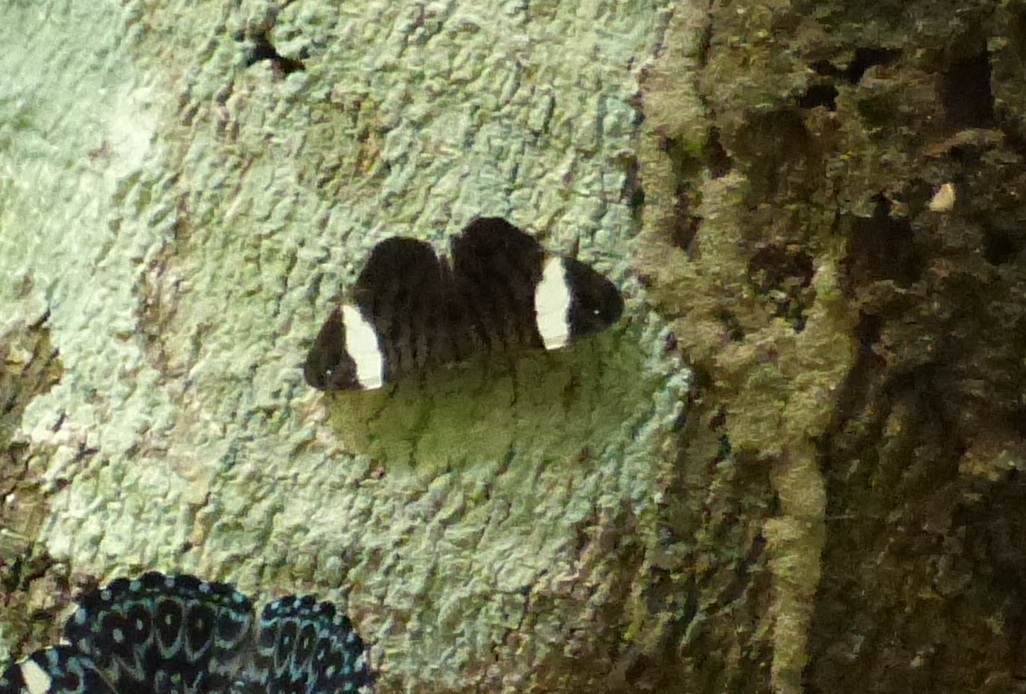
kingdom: Animalia
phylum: Arthropoda
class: Insecta
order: Lepidoptera
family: Nymphalidae
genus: Ectima
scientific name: Ectima thecla
